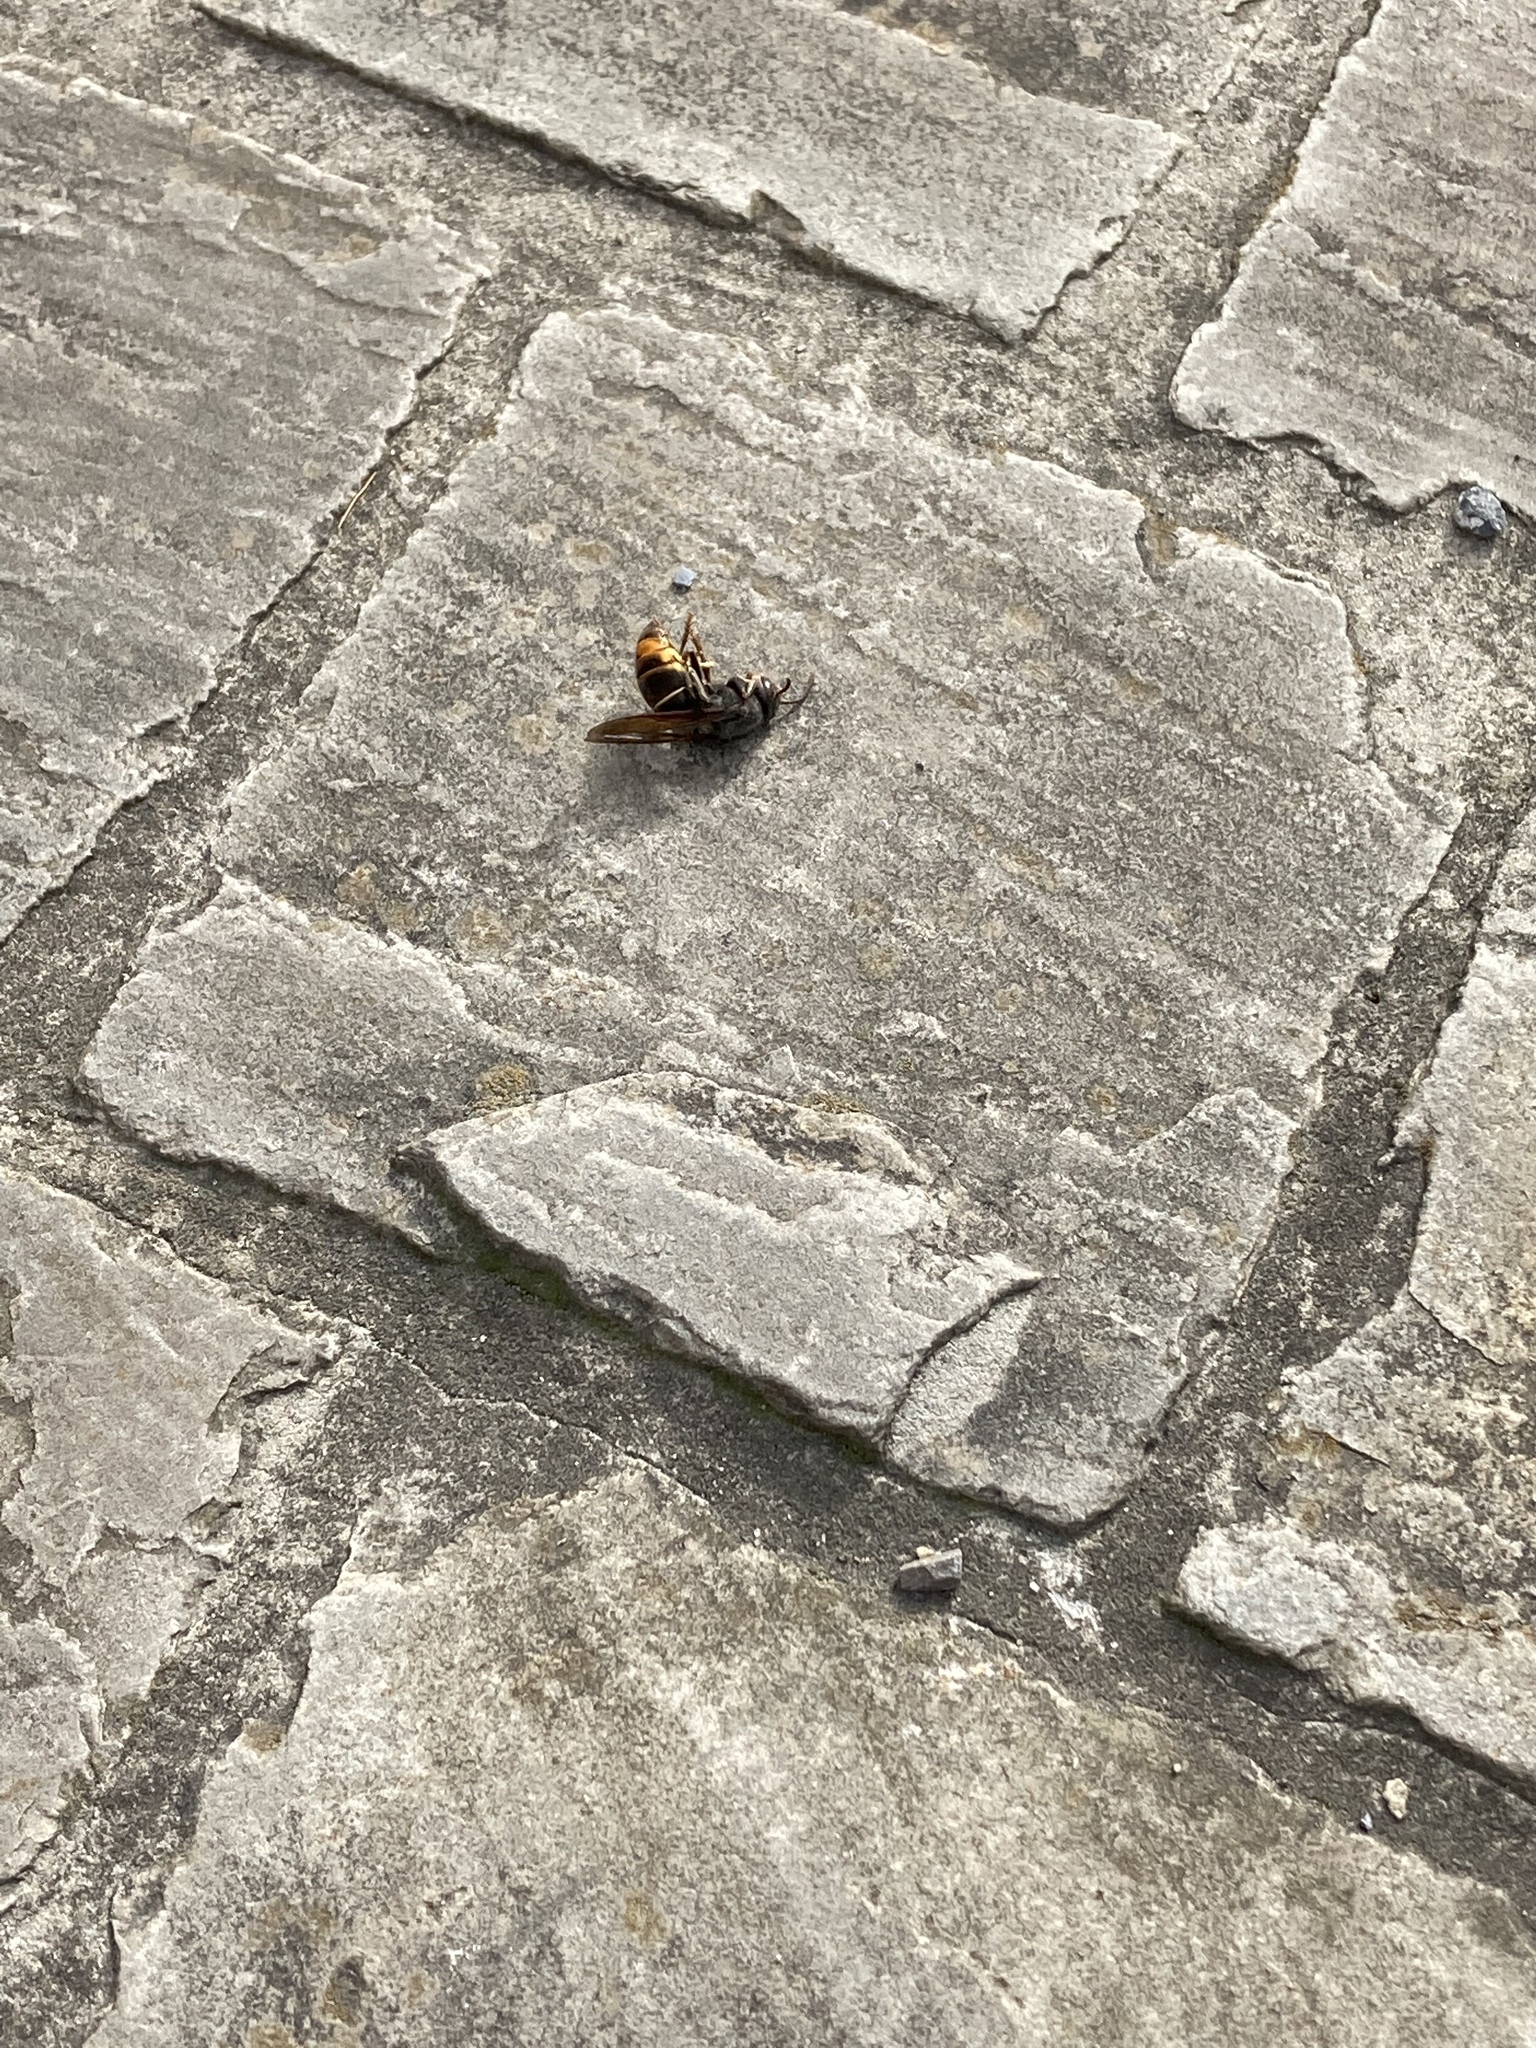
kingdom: Animalia
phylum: Arthropoda
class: Insecta
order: Hymenoptera
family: Vespidae
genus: Vespa
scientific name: Vespa velutina
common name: Asian hornet
